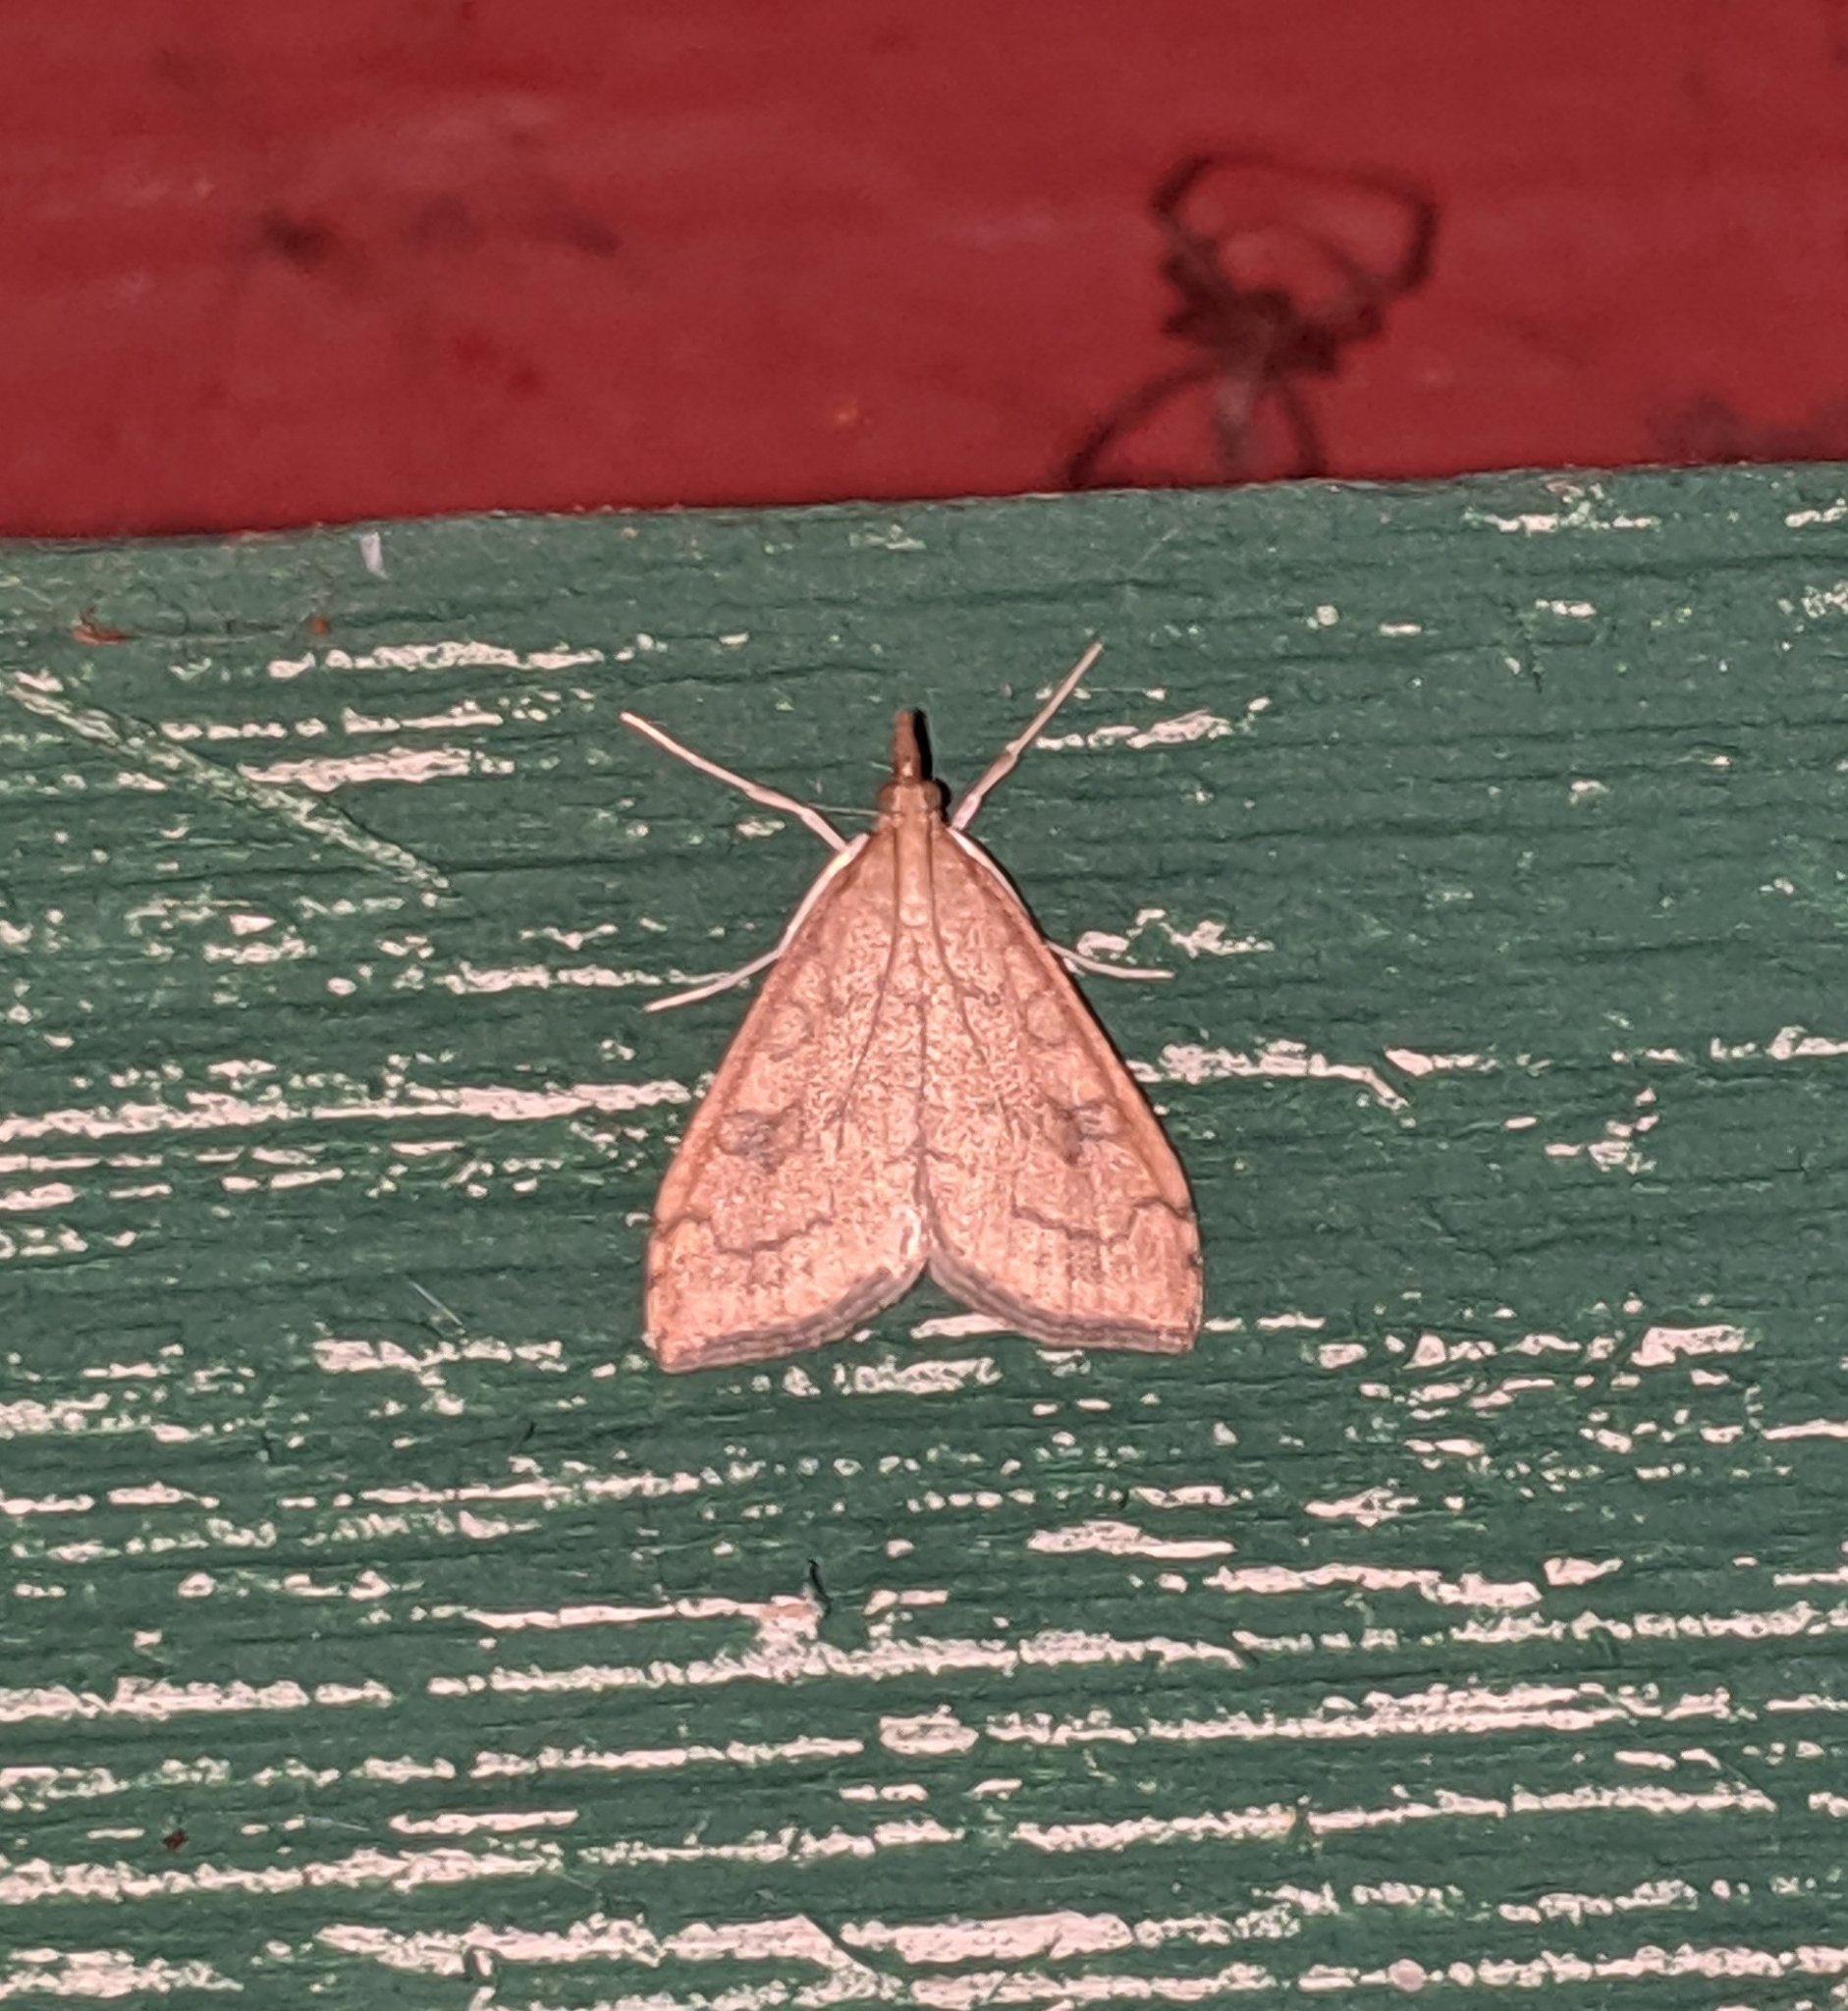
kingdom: Animalia
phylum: Arthropoda
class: Insecta
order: Lepidoptera
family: Crambidae
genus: Udea
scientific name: Udea profundalis
